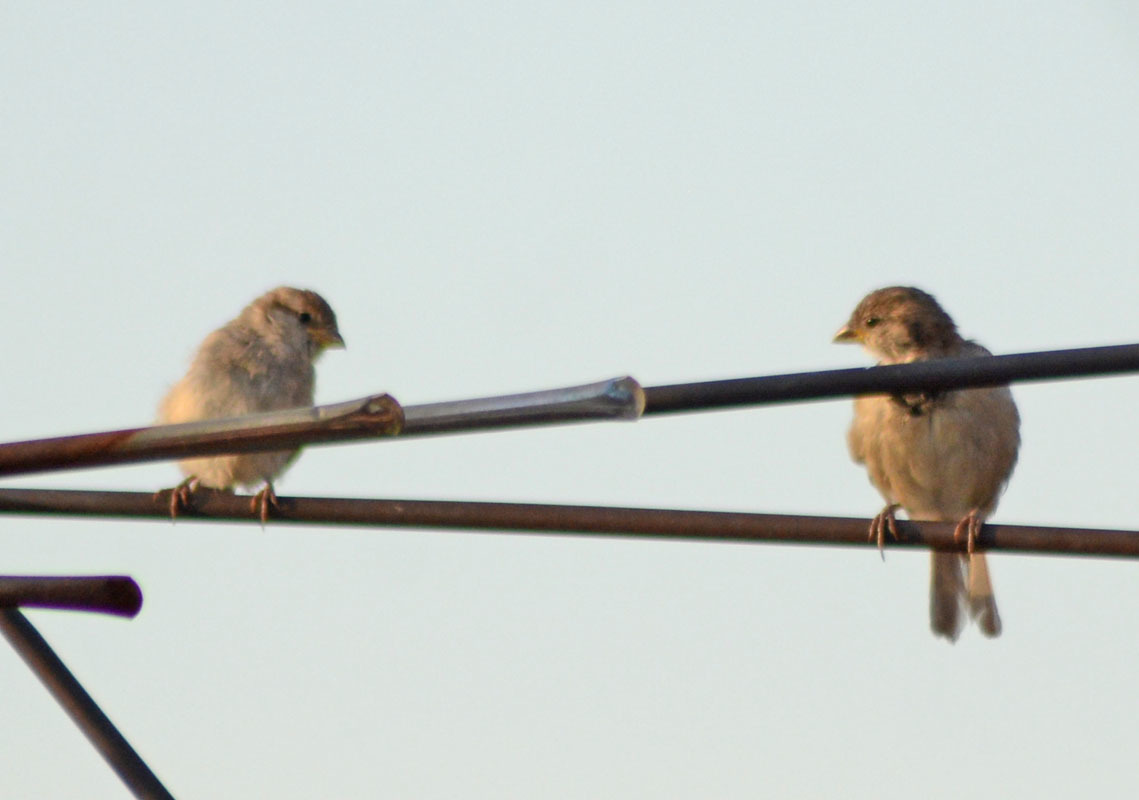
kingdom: Animalia
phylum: Chordata
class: Aves
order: Passeriformes
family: Passeridae
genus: Passer
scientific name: Passer domesticus
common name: House sparrow
